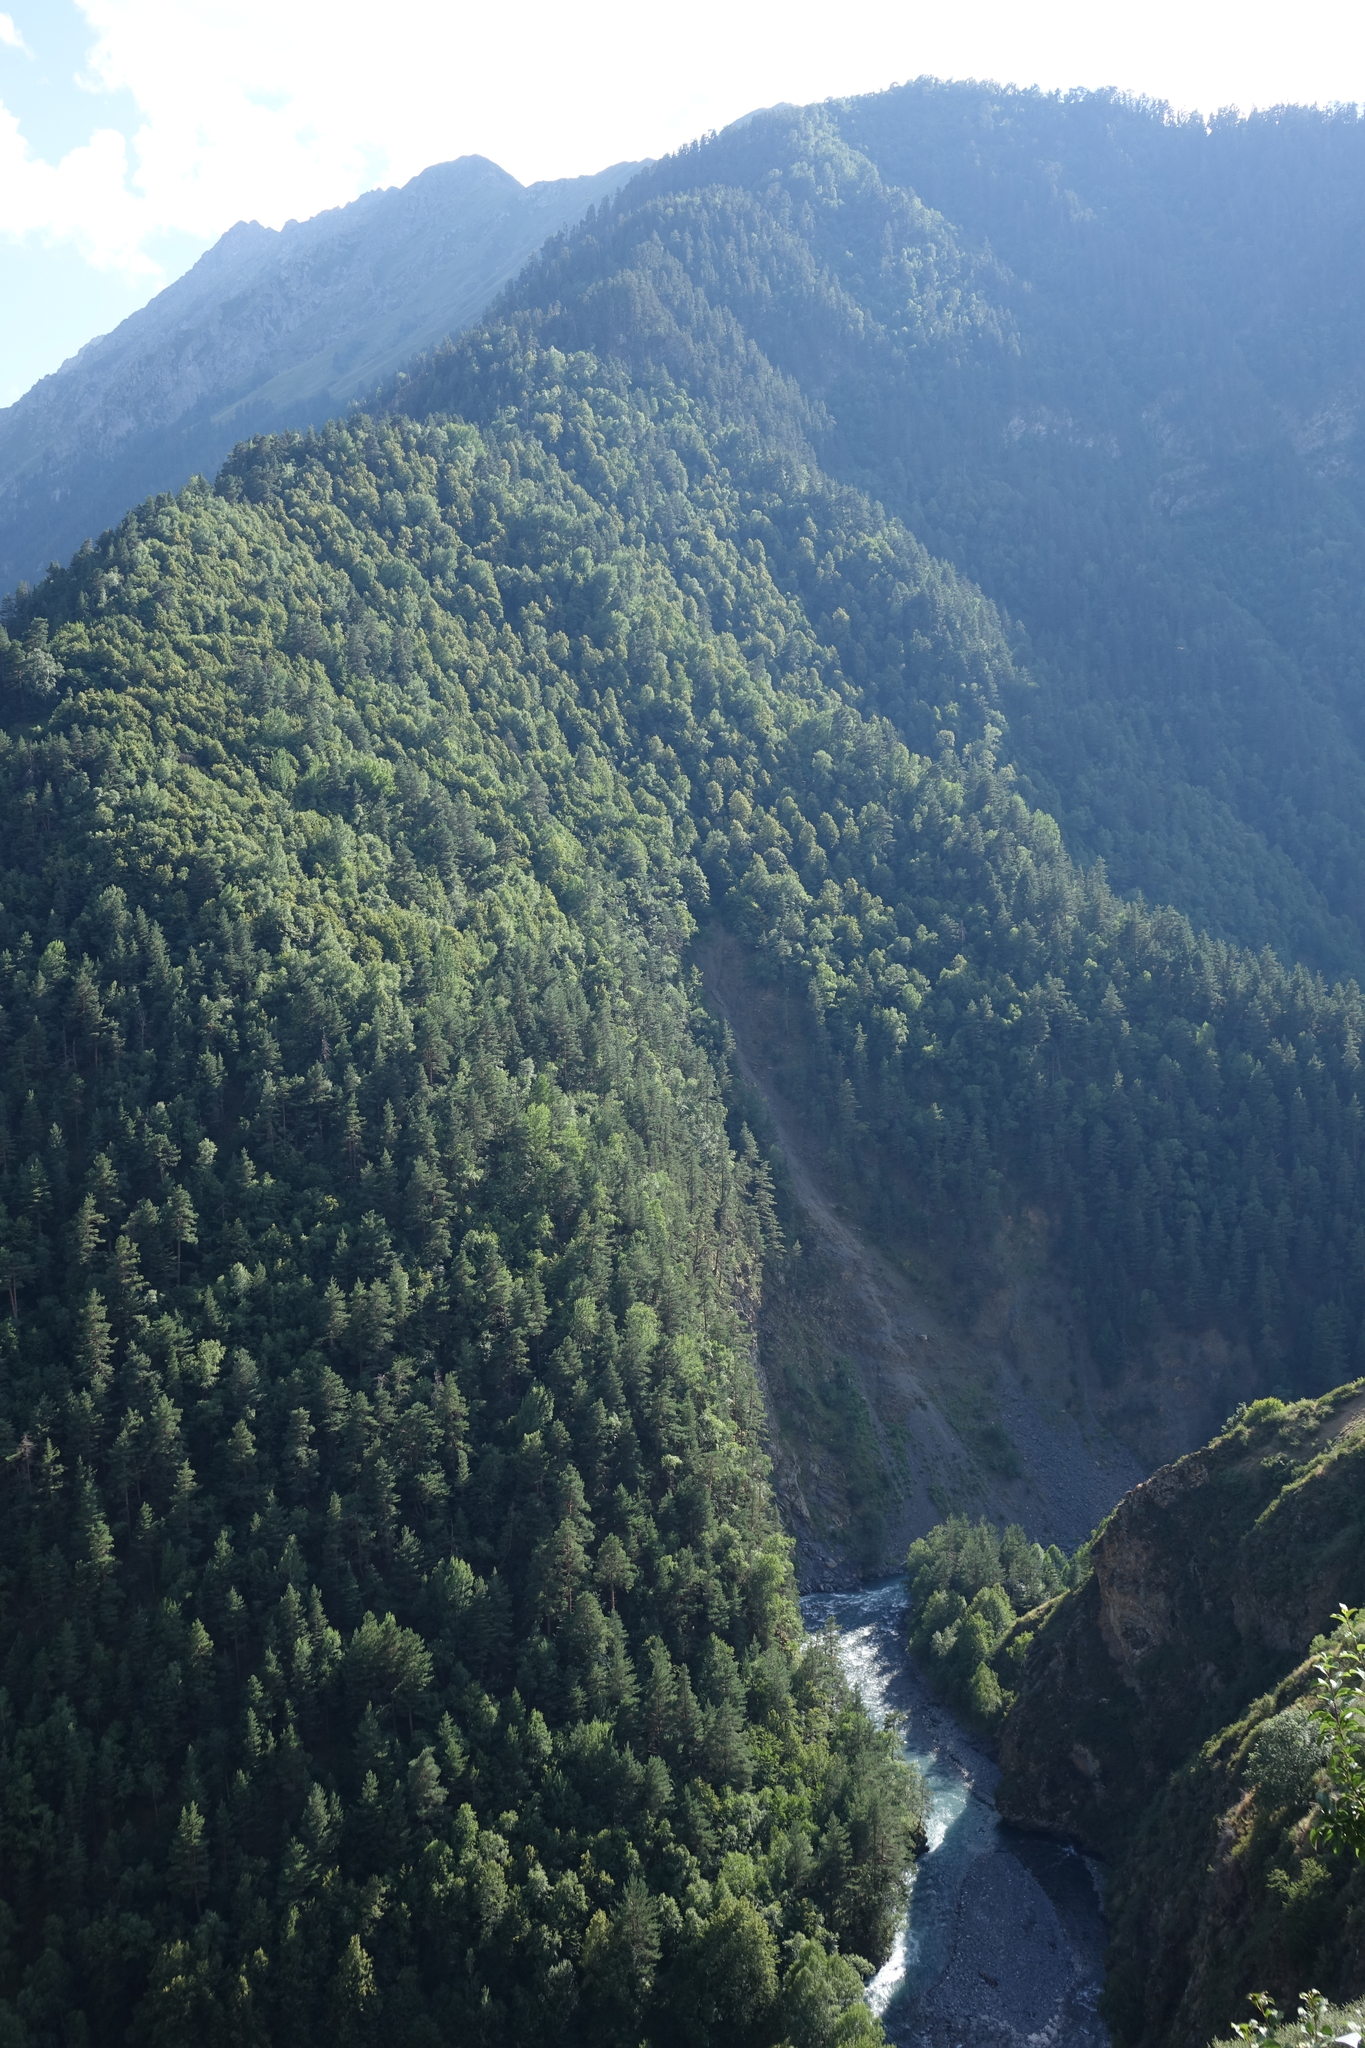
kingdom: Plantae
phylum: Tracheophyta
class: Pinopsida
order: Pinales
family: Pinaceae
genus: Pinus
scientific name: Pinus sylvestris
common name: Scots pine
